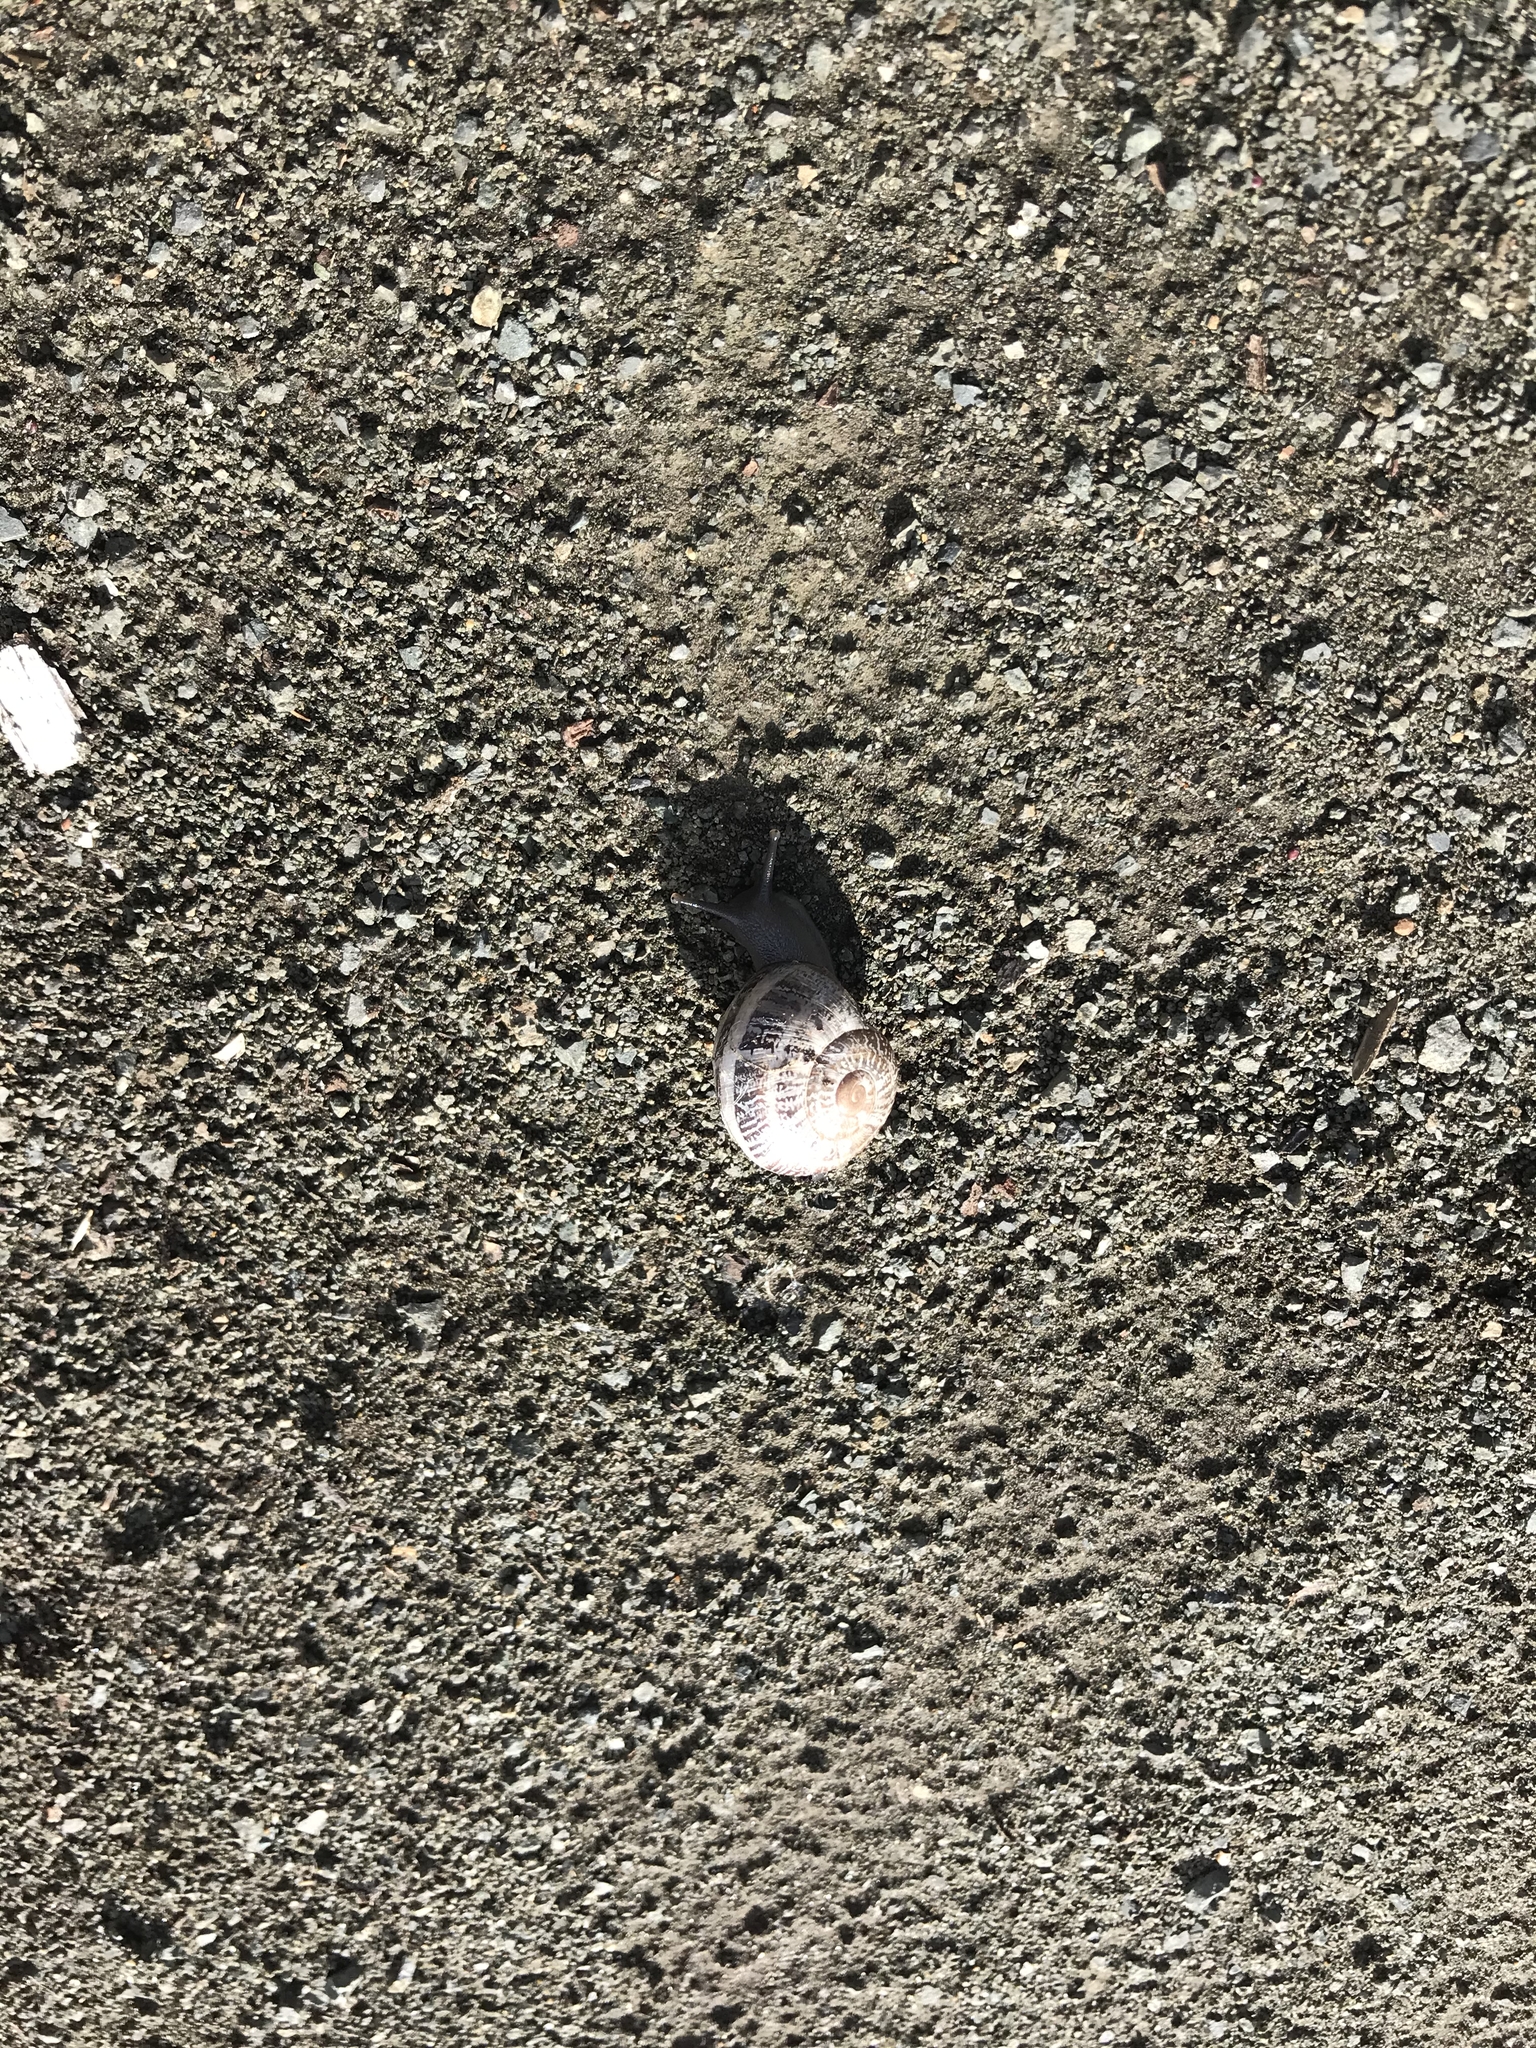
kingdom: Animalia
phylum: Mollusca
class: Gastropoda
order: Stylommatophora
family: Helicidae
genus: Otala
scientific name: Otala lactea
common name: Milk snail
